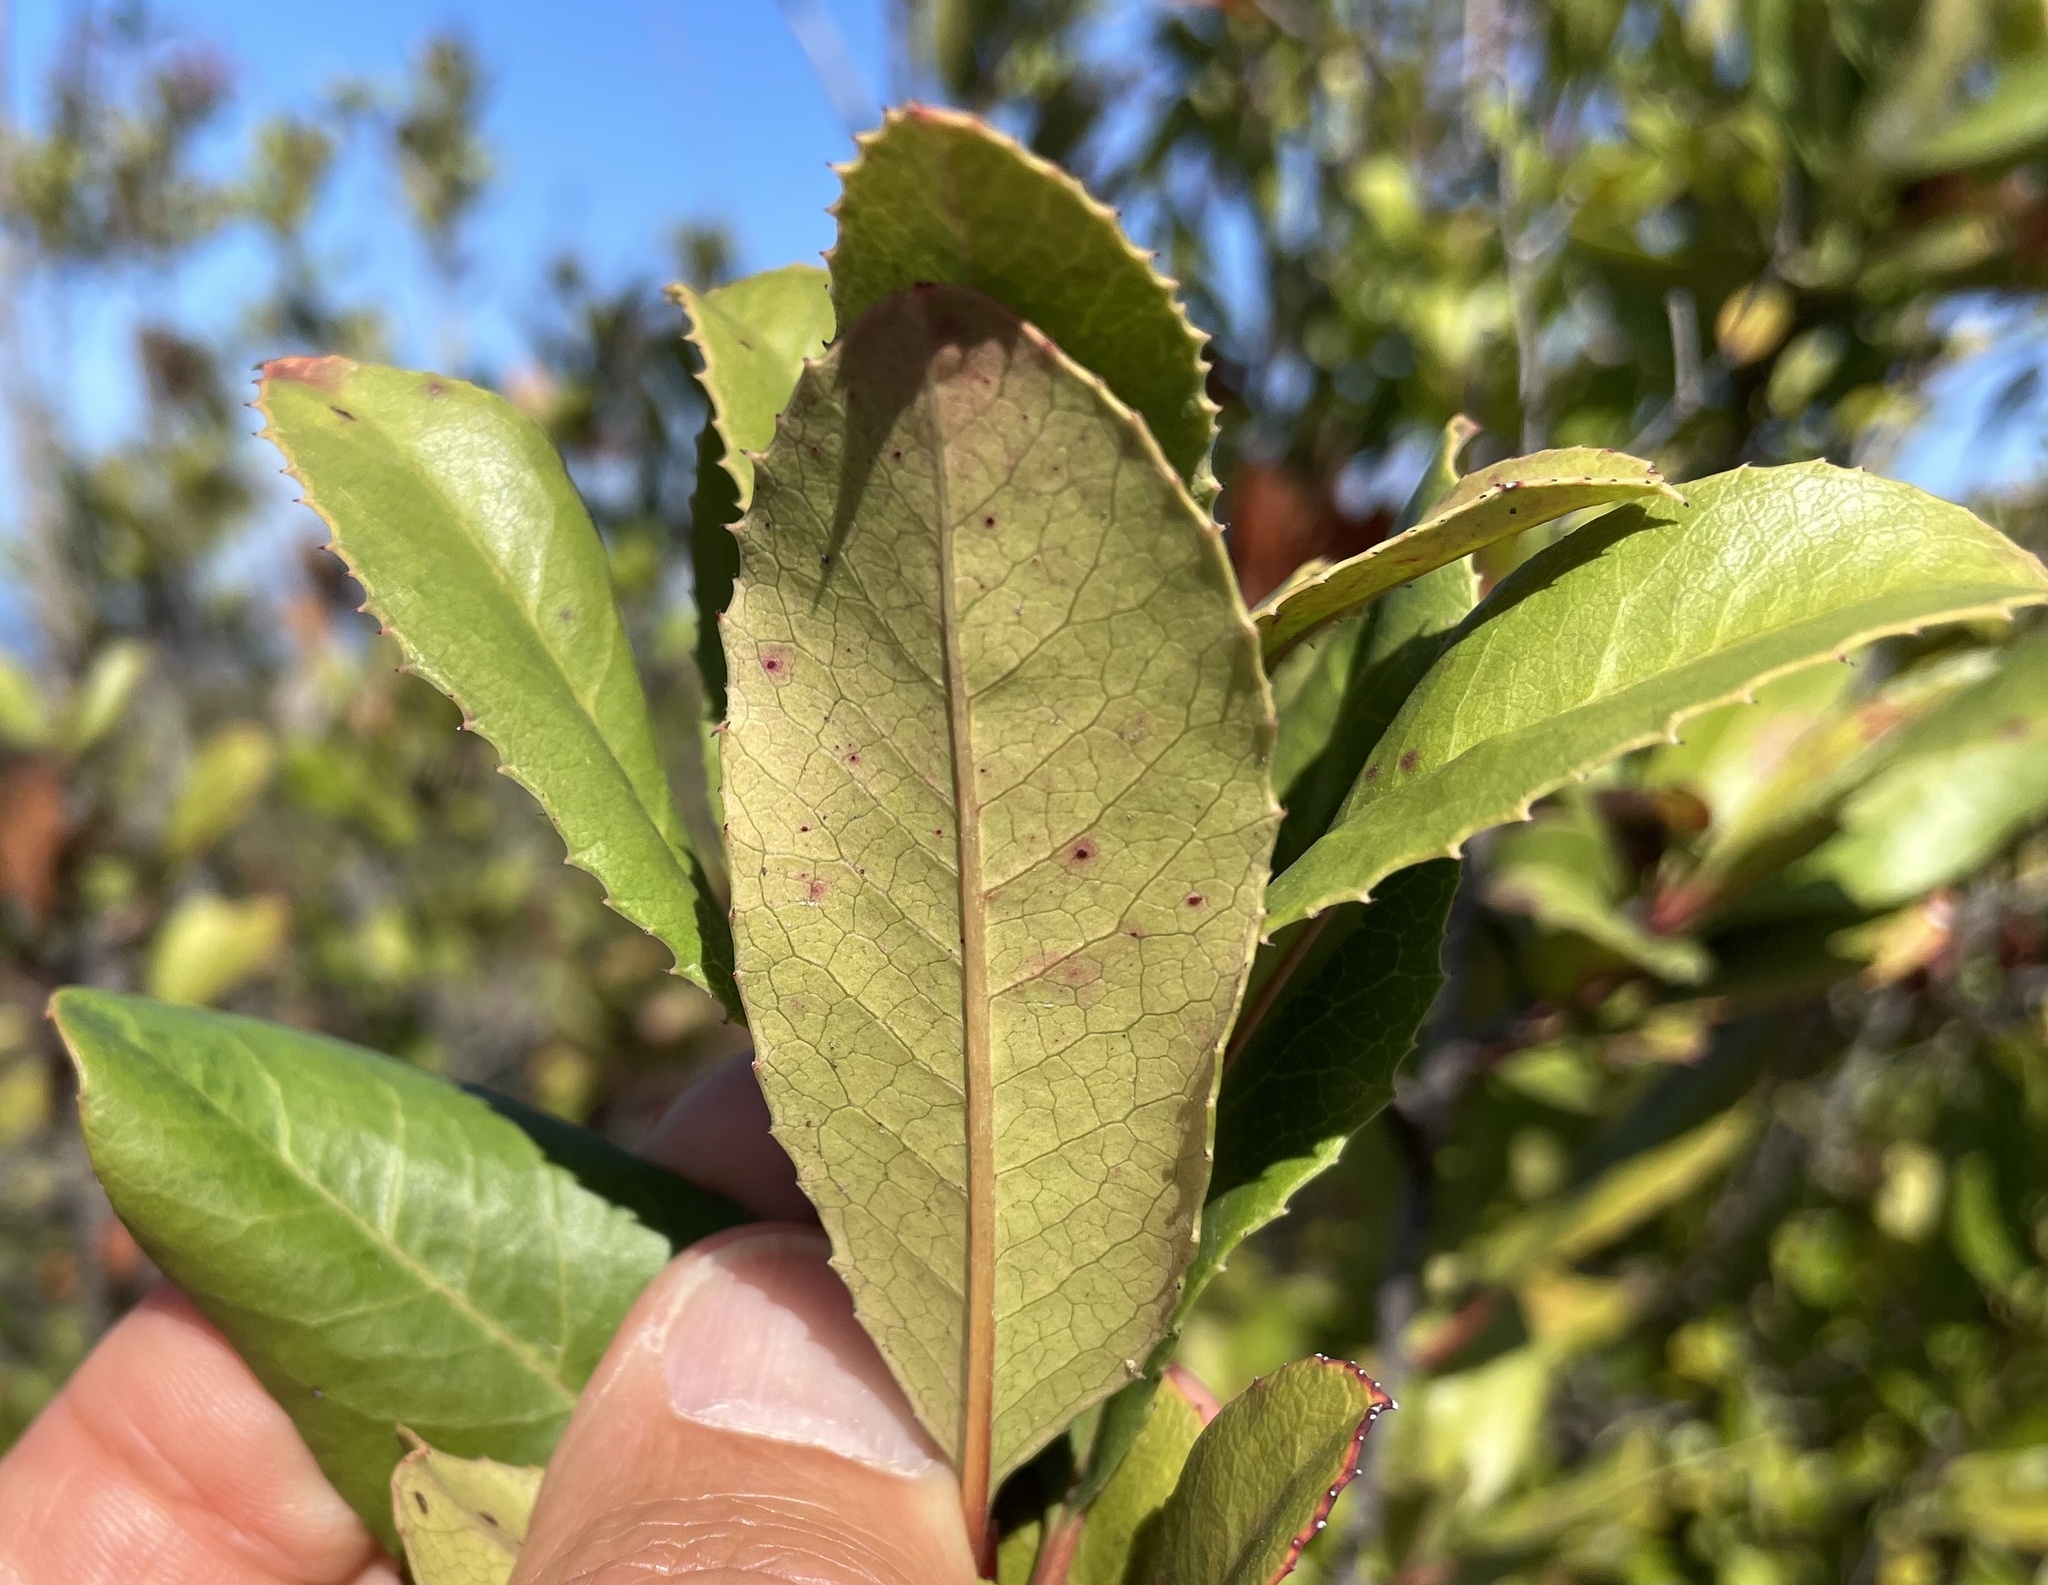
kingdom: Plantae
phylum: Tracheophyta
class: Magnoliopsida
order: Rosales
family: Rosaceae
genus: Heteromeles
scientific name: Heteromeles arbutifolia
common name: California-holly
